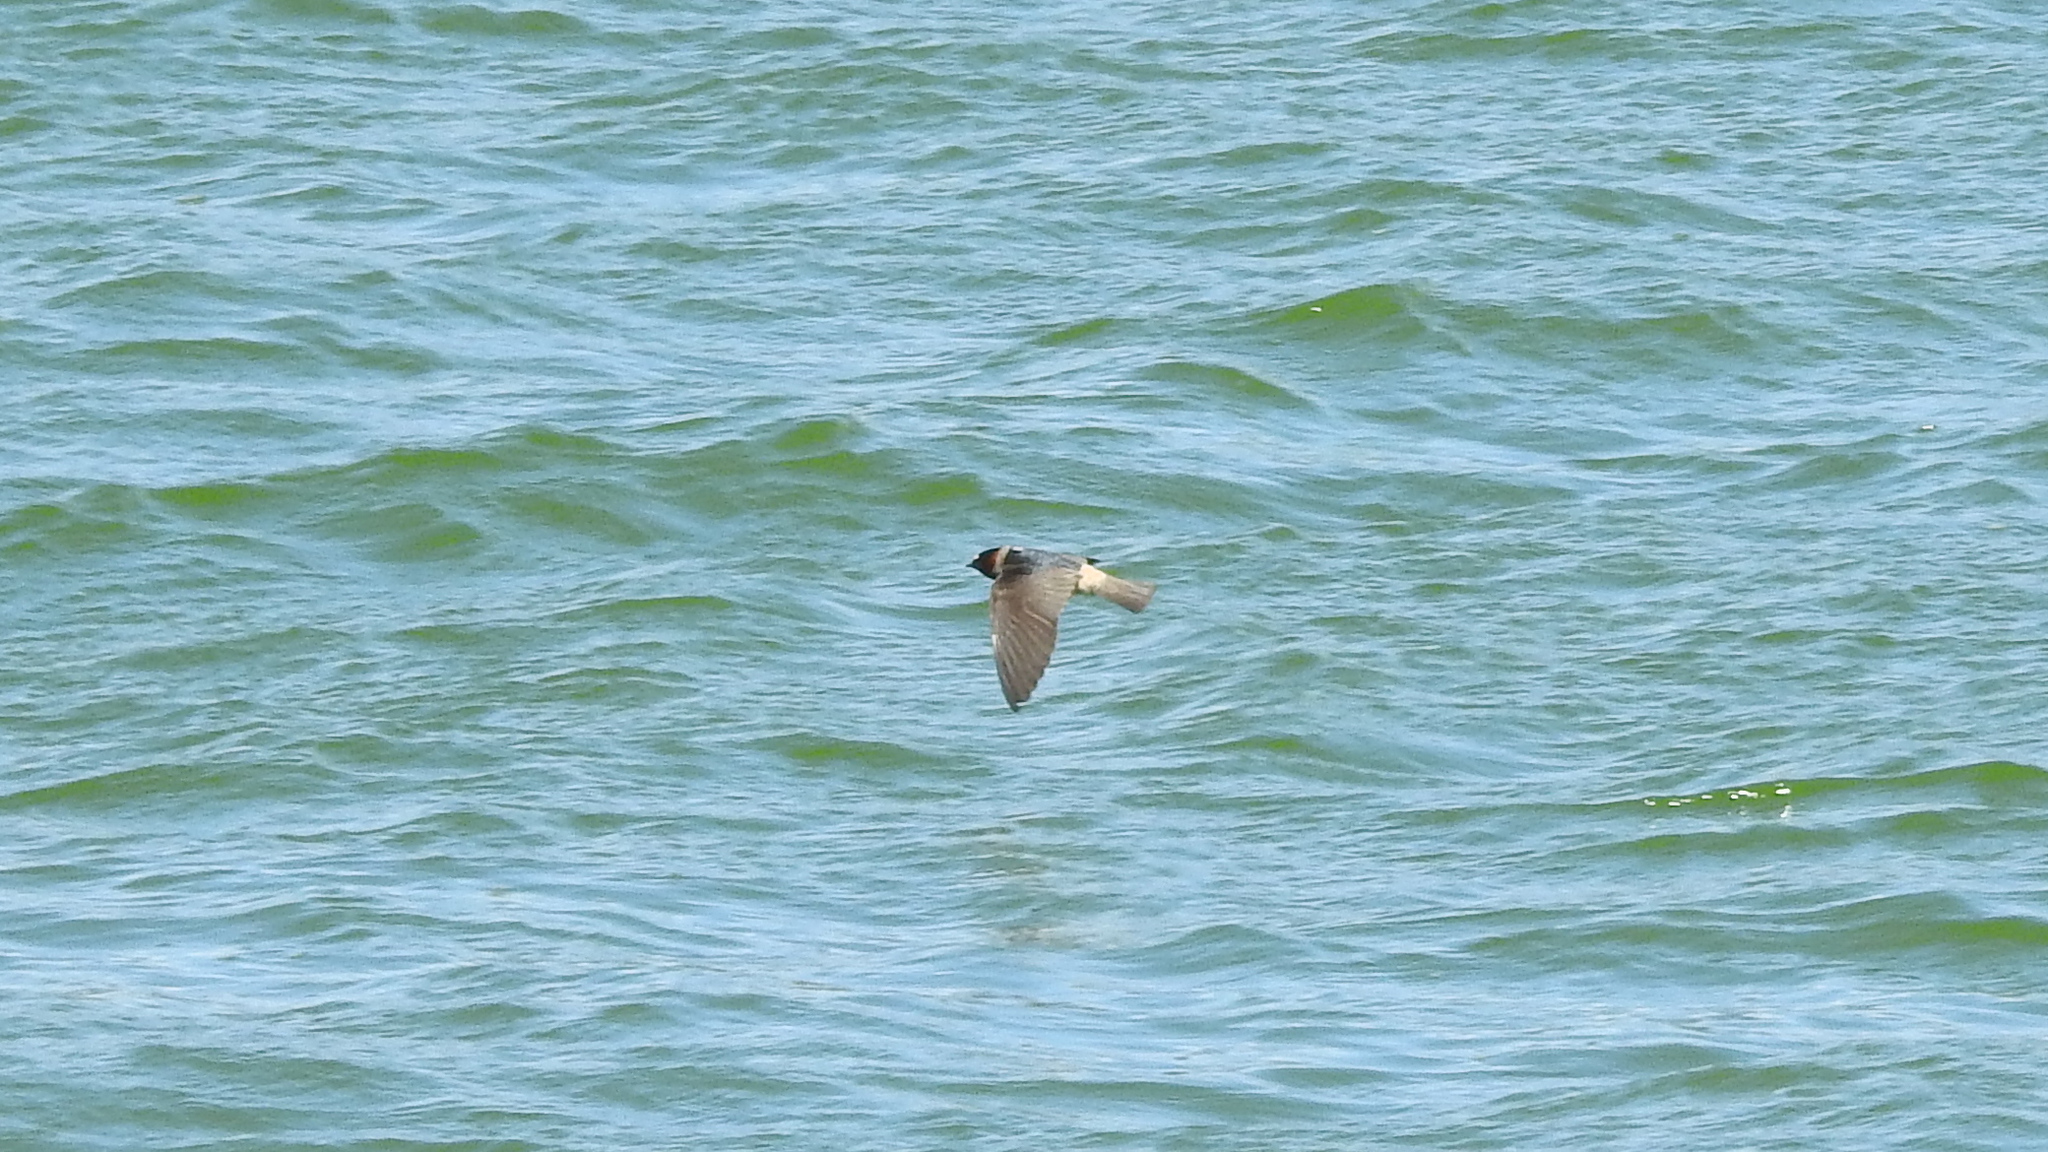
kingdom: Animalia
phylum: Chordata
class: Aves
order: Passeriformes
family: Hirundinidae
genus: Petrochelidon
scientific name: Petrochelidon pyrrhonota
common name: American cliff swallow
